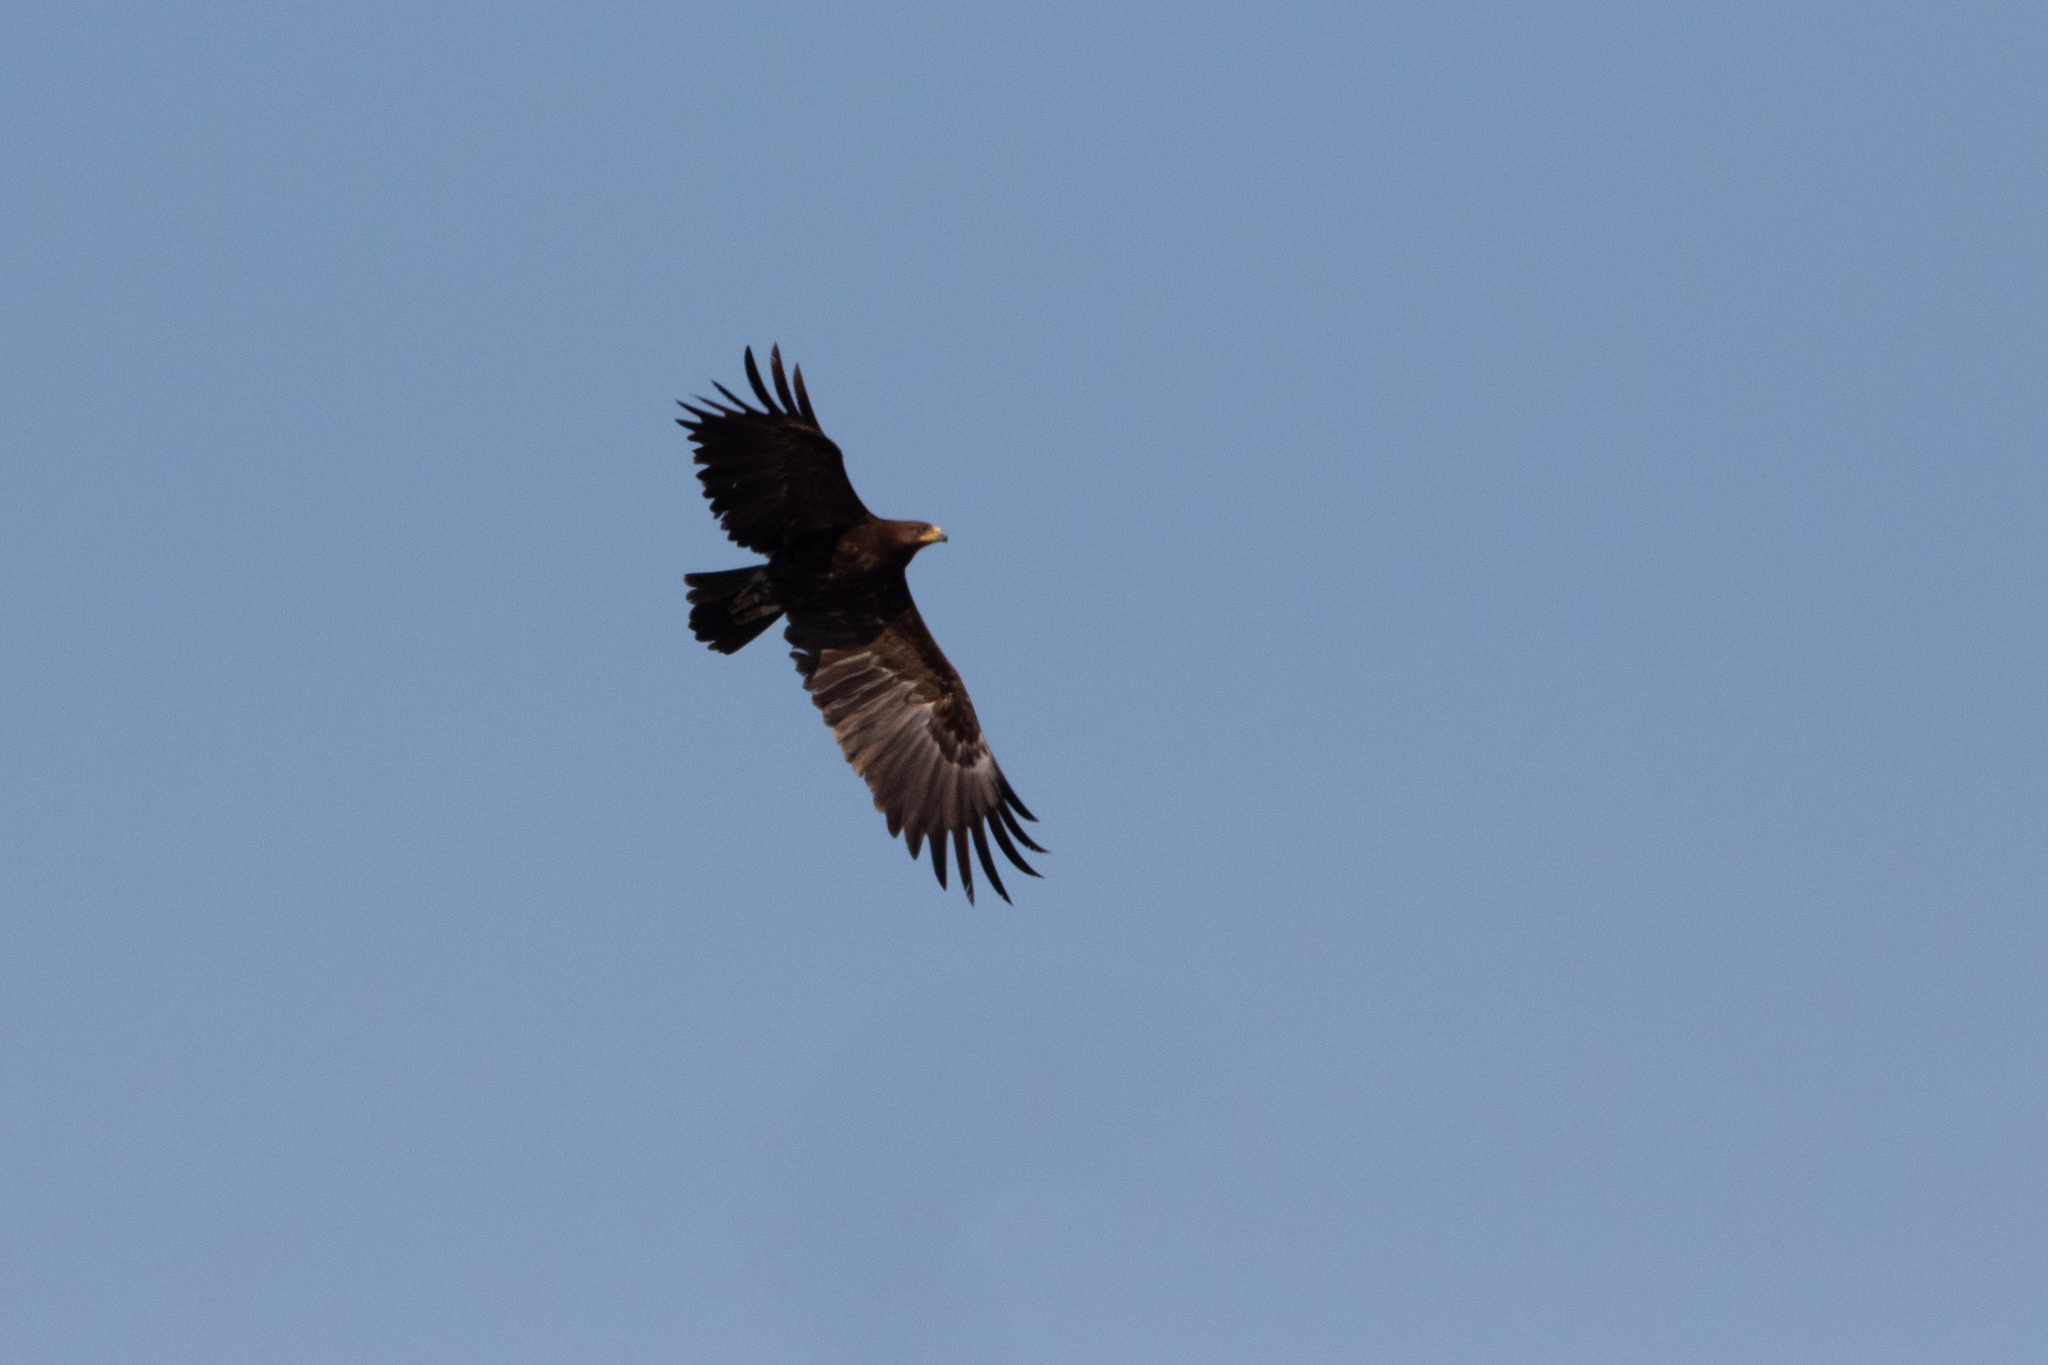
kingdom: Animalia
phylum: Chordata
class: Aves
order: Accipitriformes
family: Accipitridae
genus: Aquila
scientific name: Aquila clanga
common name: Greater spotted eagle
